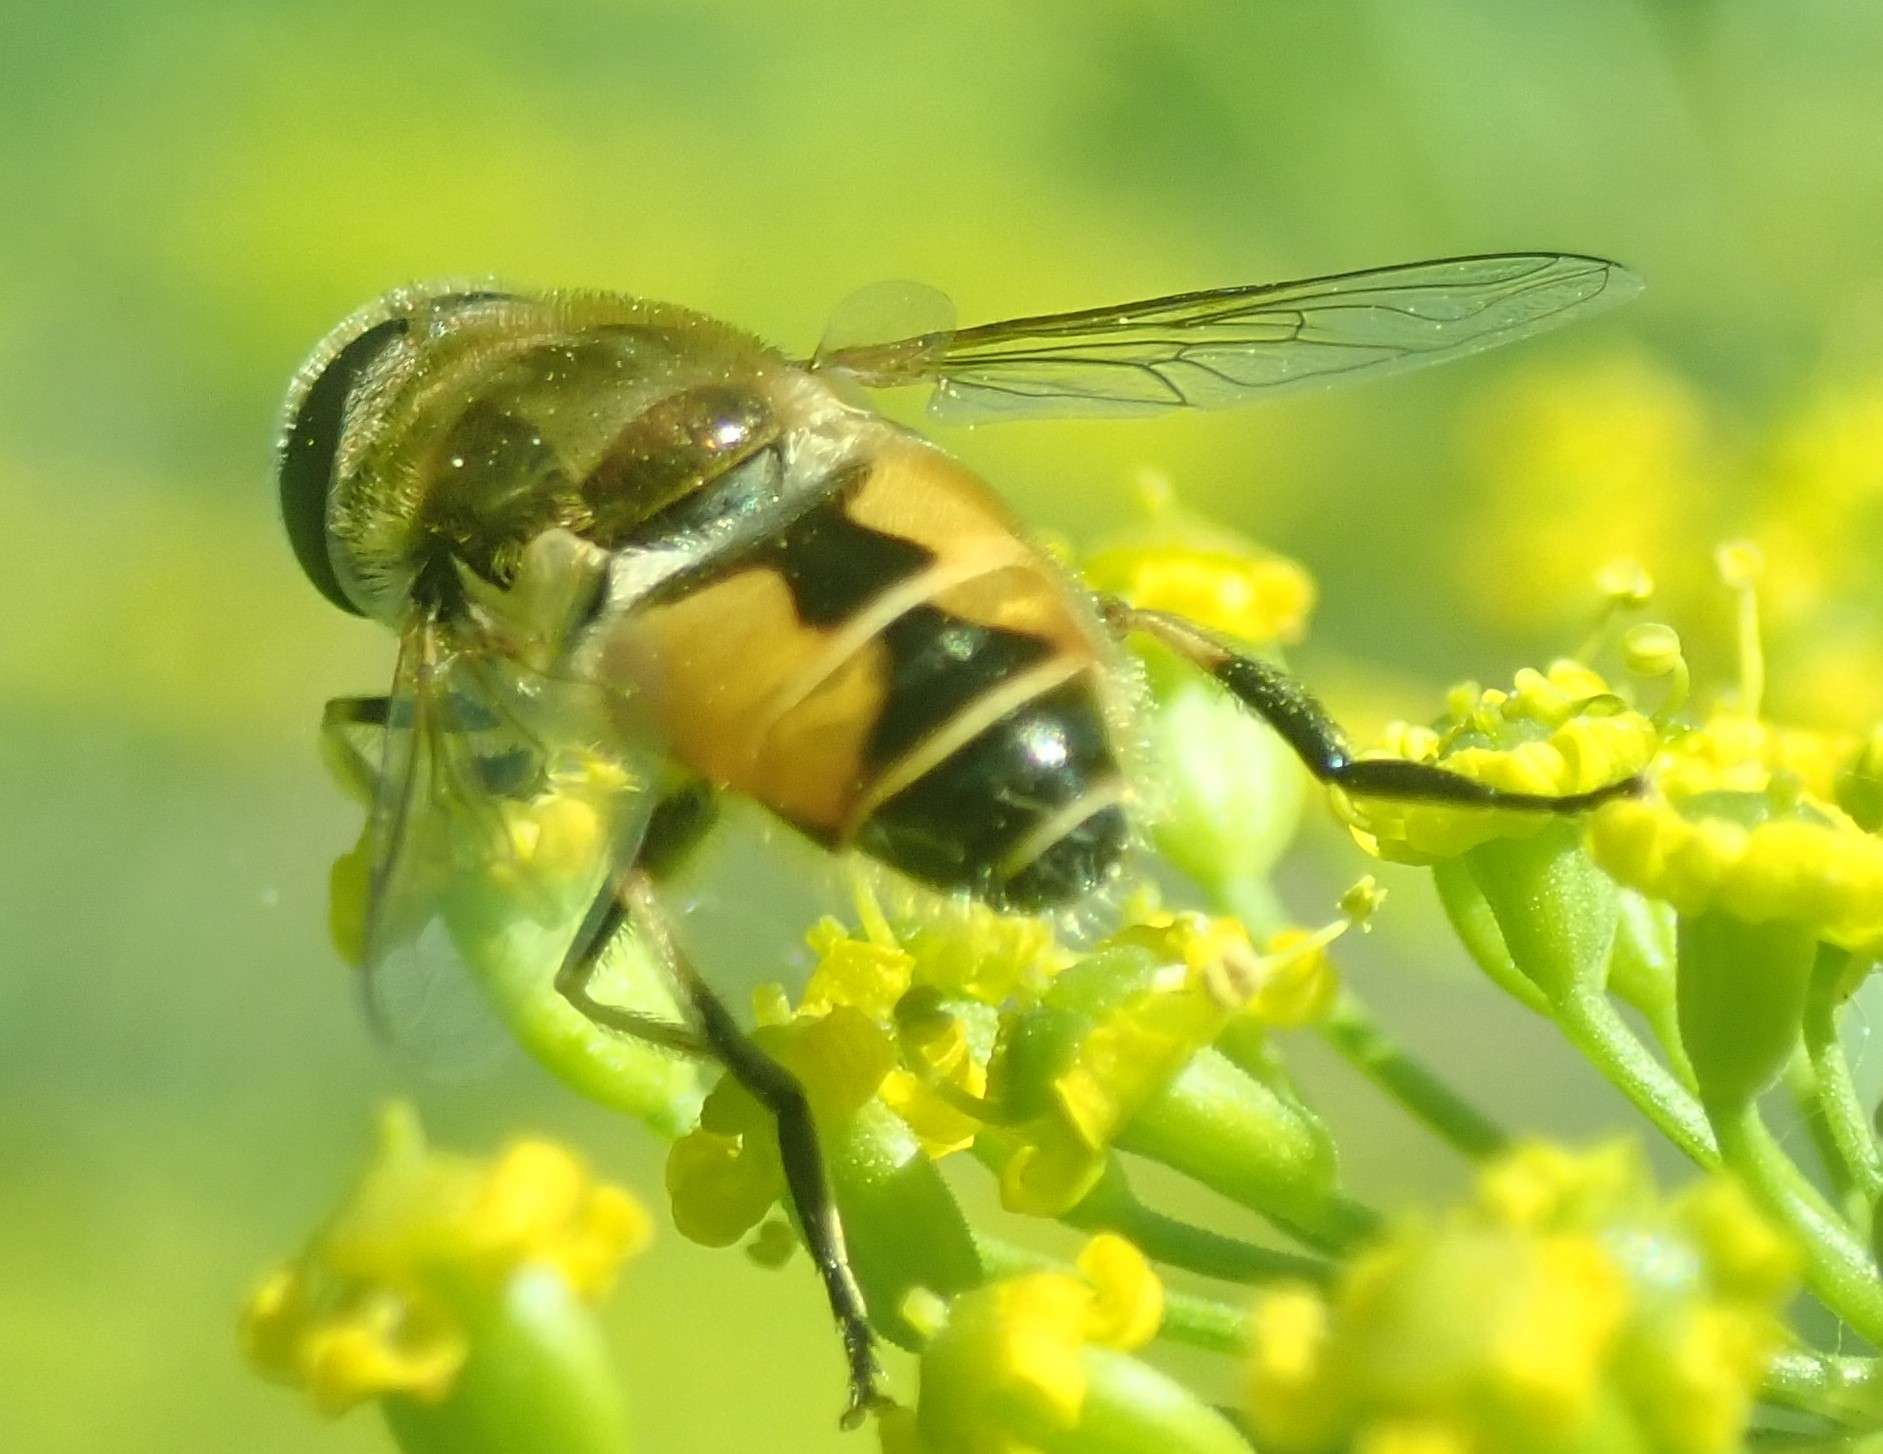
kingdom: Animalia
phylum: Arthropoda
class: Insecta
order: Diptera
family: Syrphidae
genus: Eristalis
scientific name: Eristalis arbustorum
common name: Hover fly
